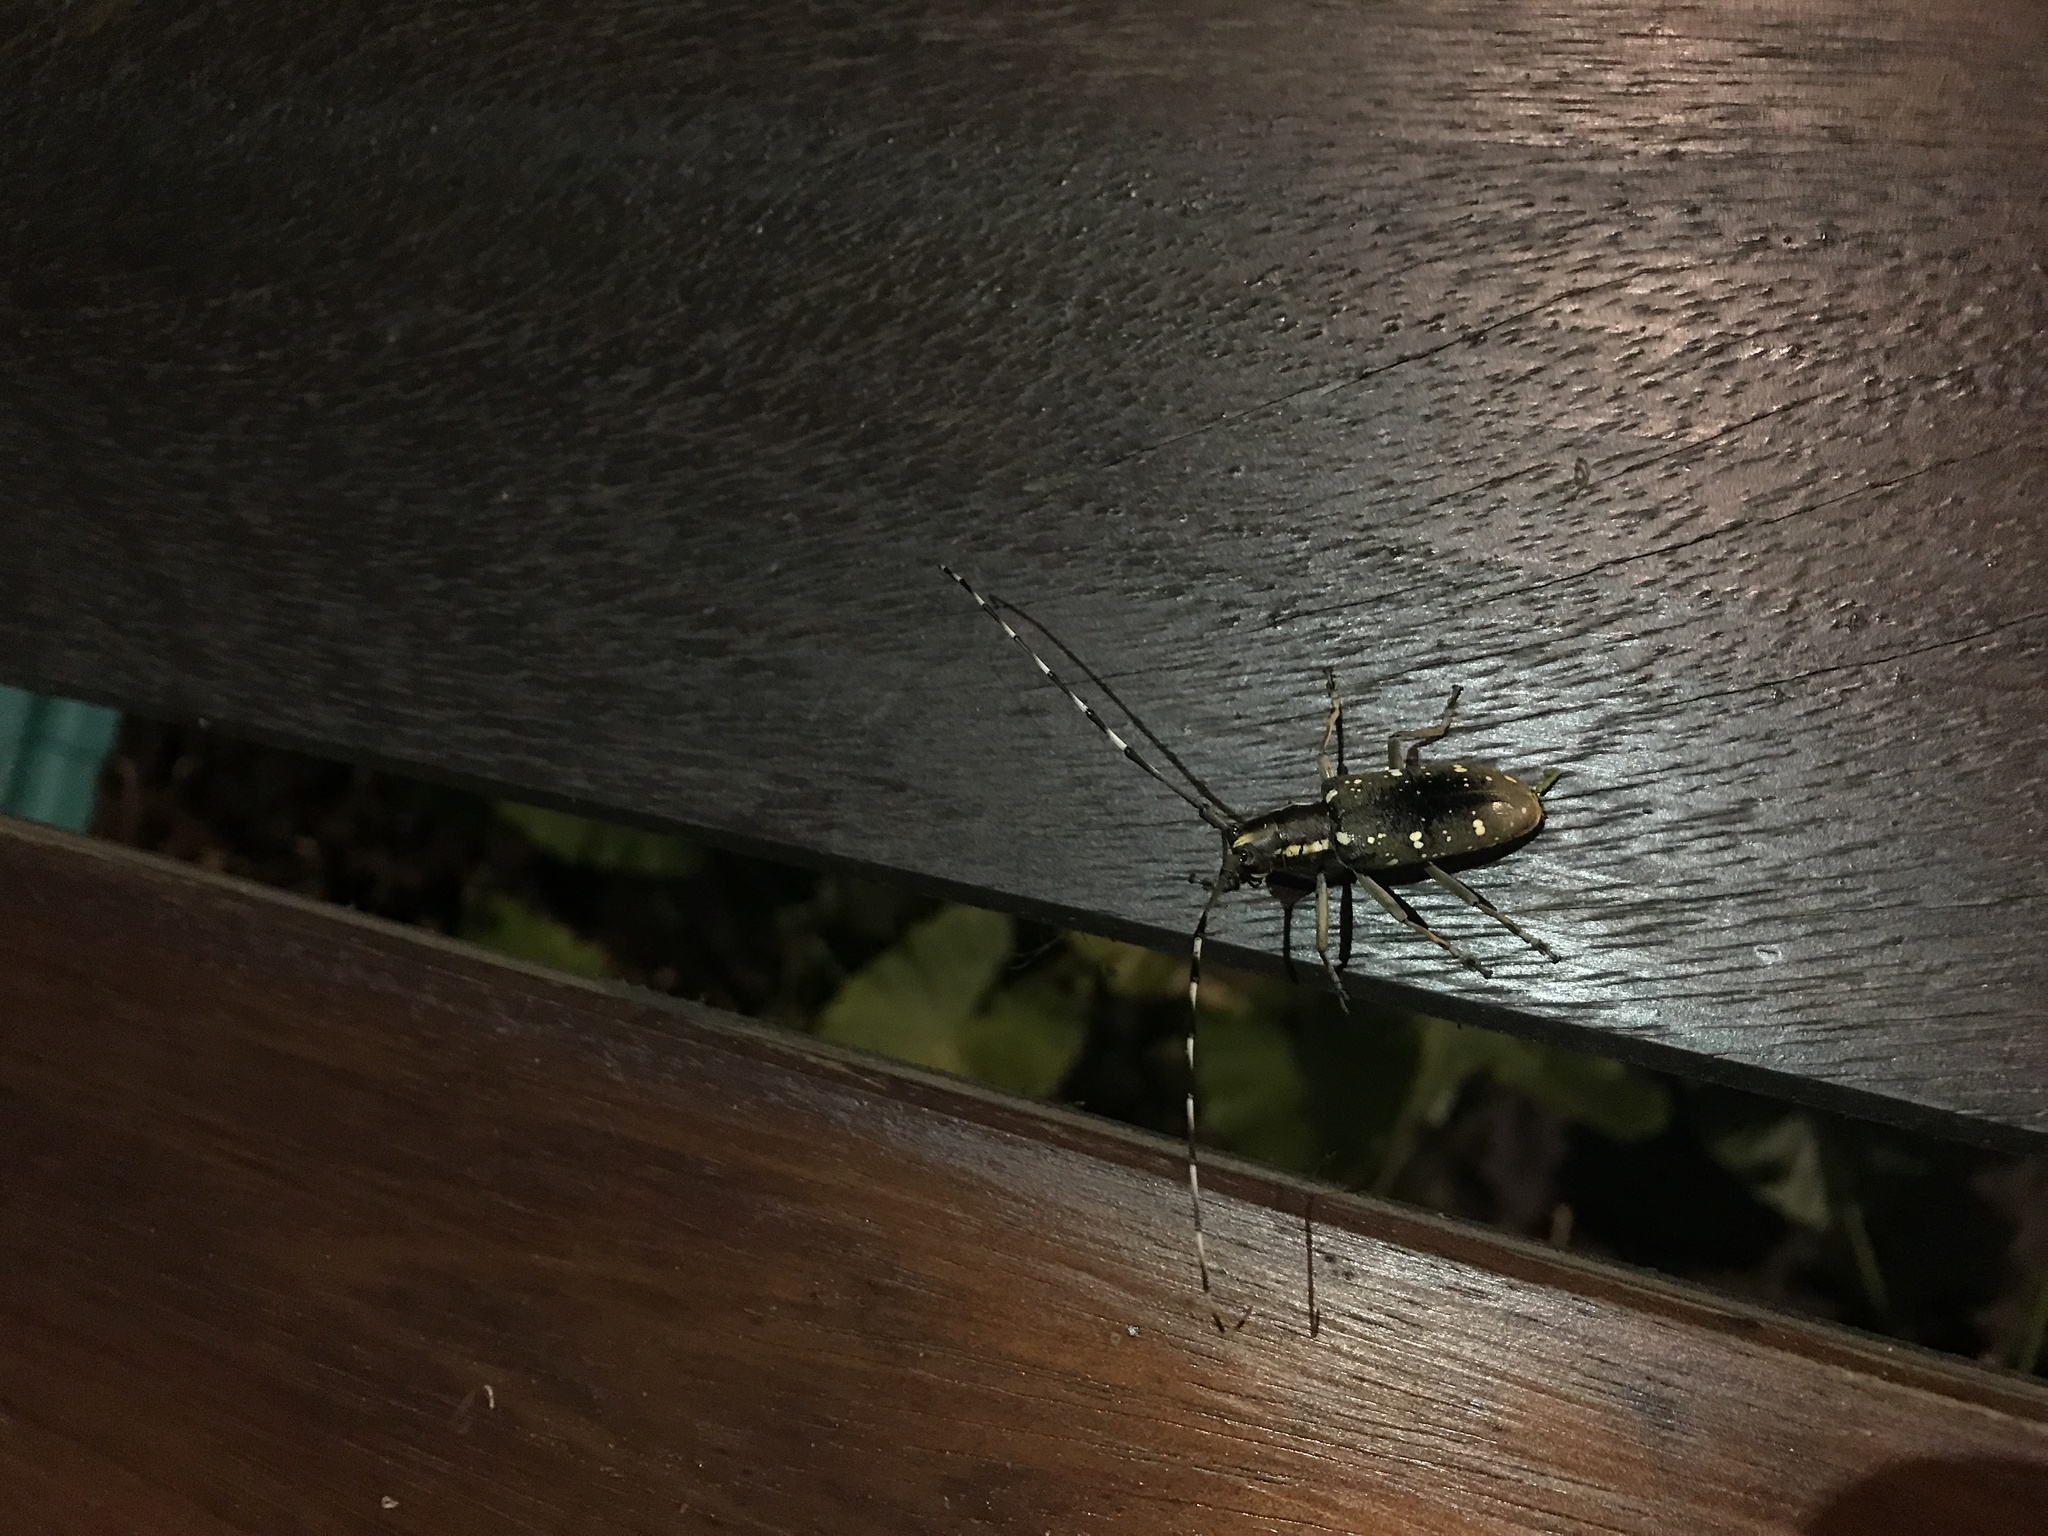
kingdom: Animalia
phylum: Arthropoda
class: Insecta
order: Coleoptera
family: Cerambycidae
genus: Psacothea
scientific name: Psacothea hilaris
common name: Yellow-spotted longicorn beetle
